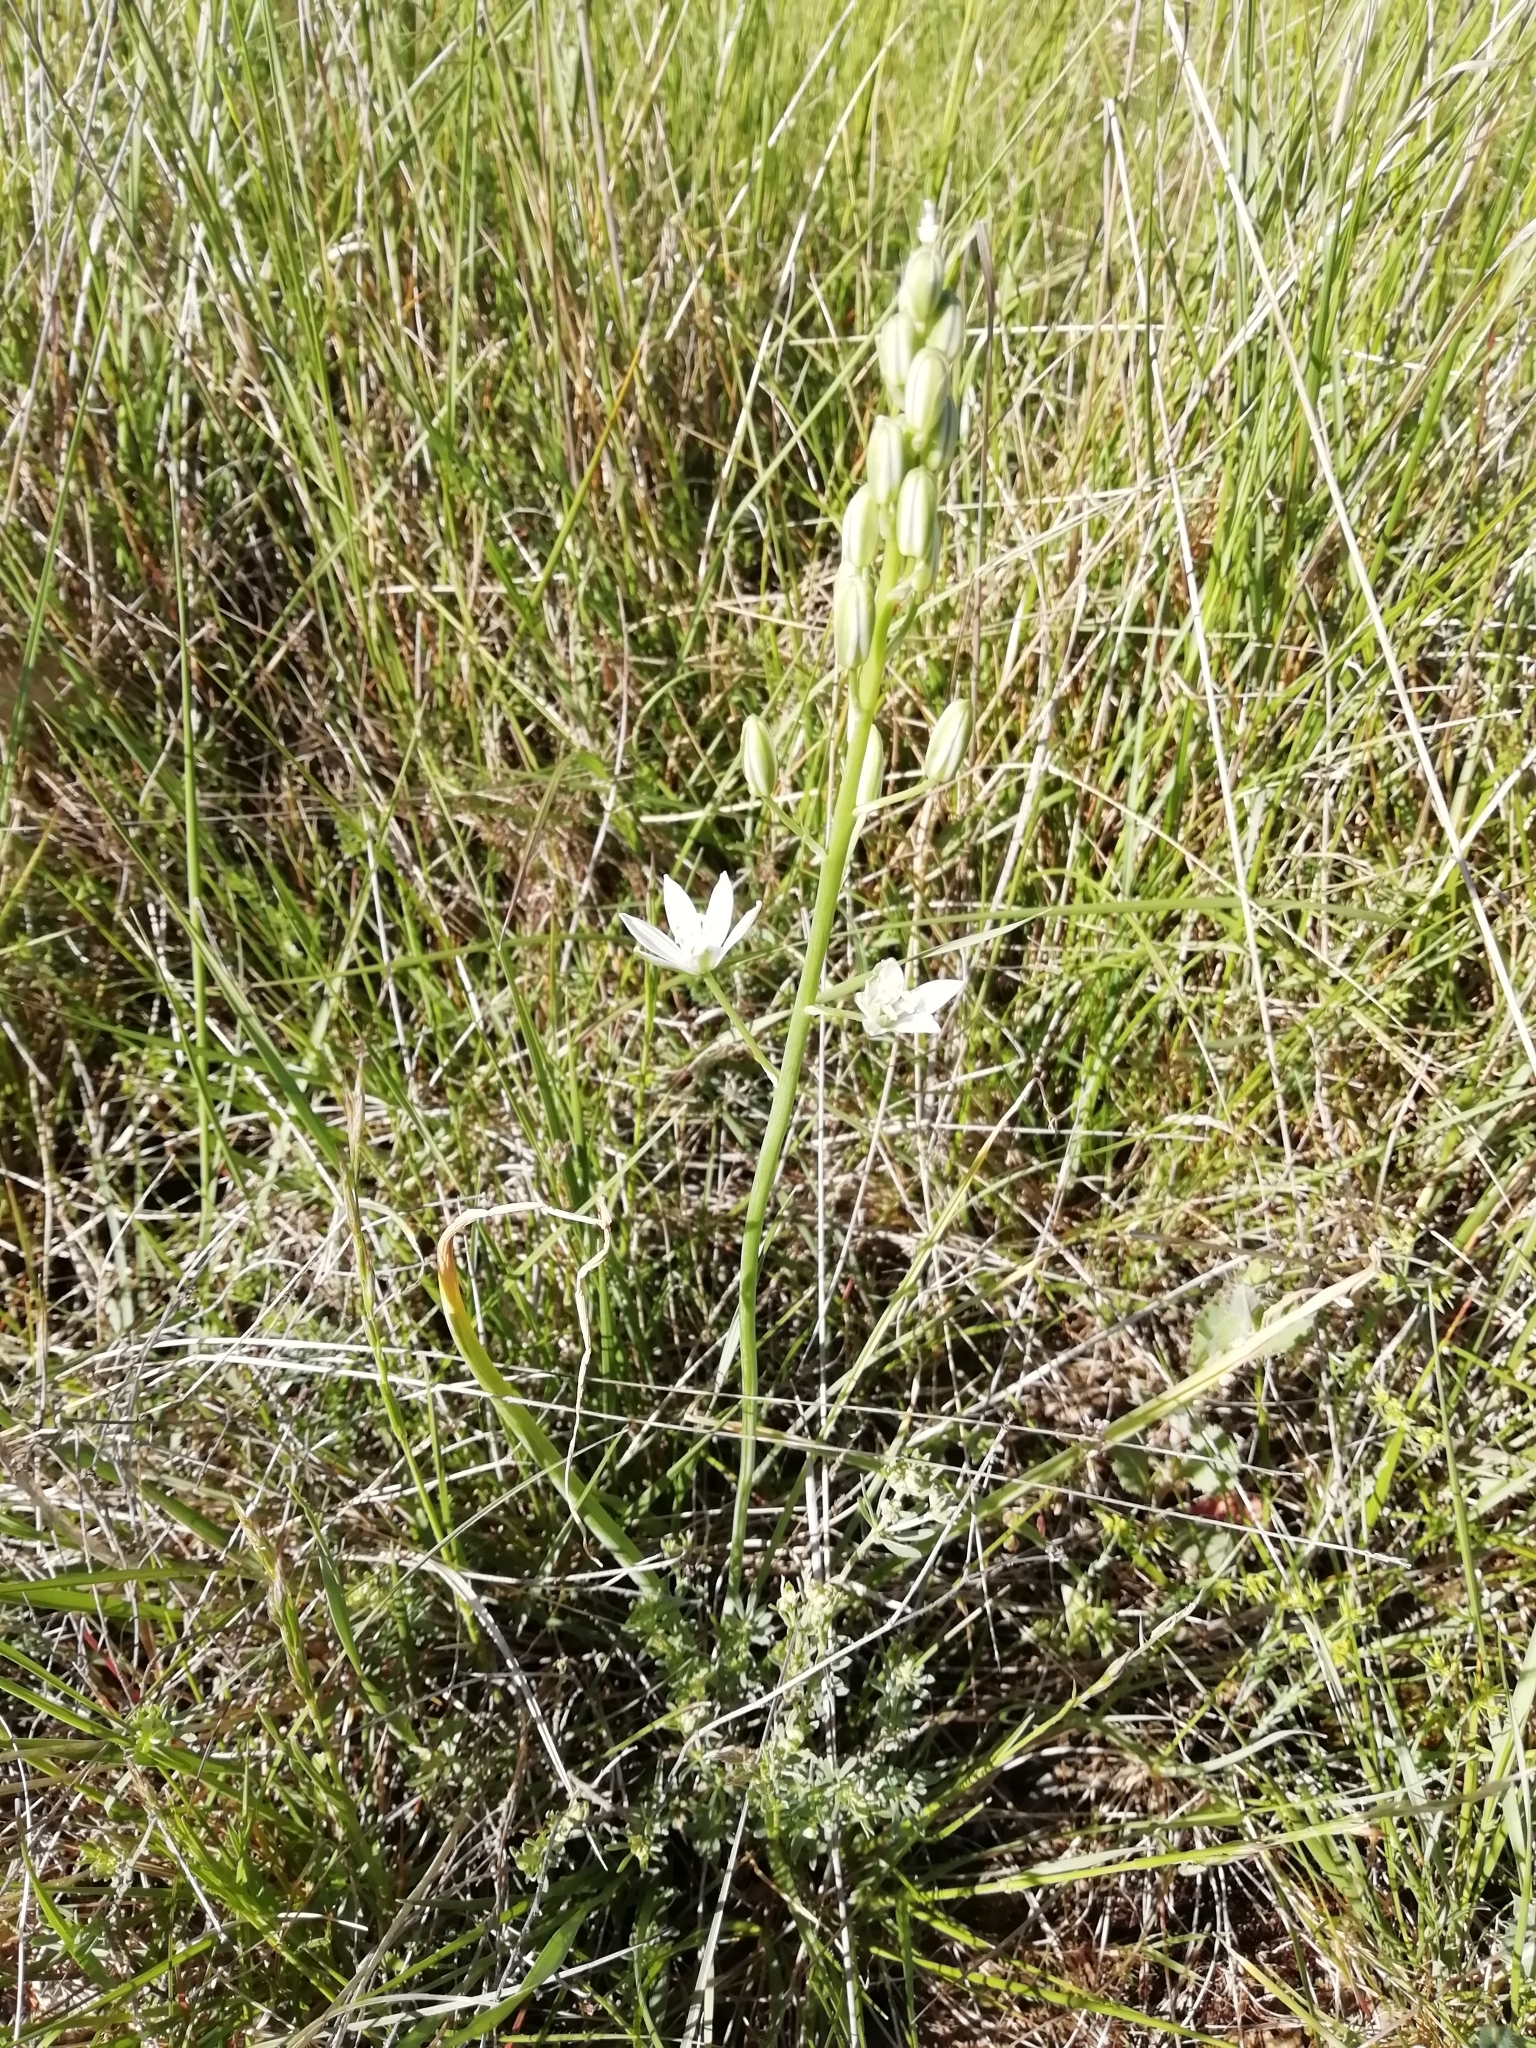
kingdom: Plantae
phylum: Tracheophyta
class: Liliopsida
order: Asparagales
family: Asparagaceae
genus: Ornithogalum
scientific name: Ornithogalum narbonense
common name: Bath-asparagus
